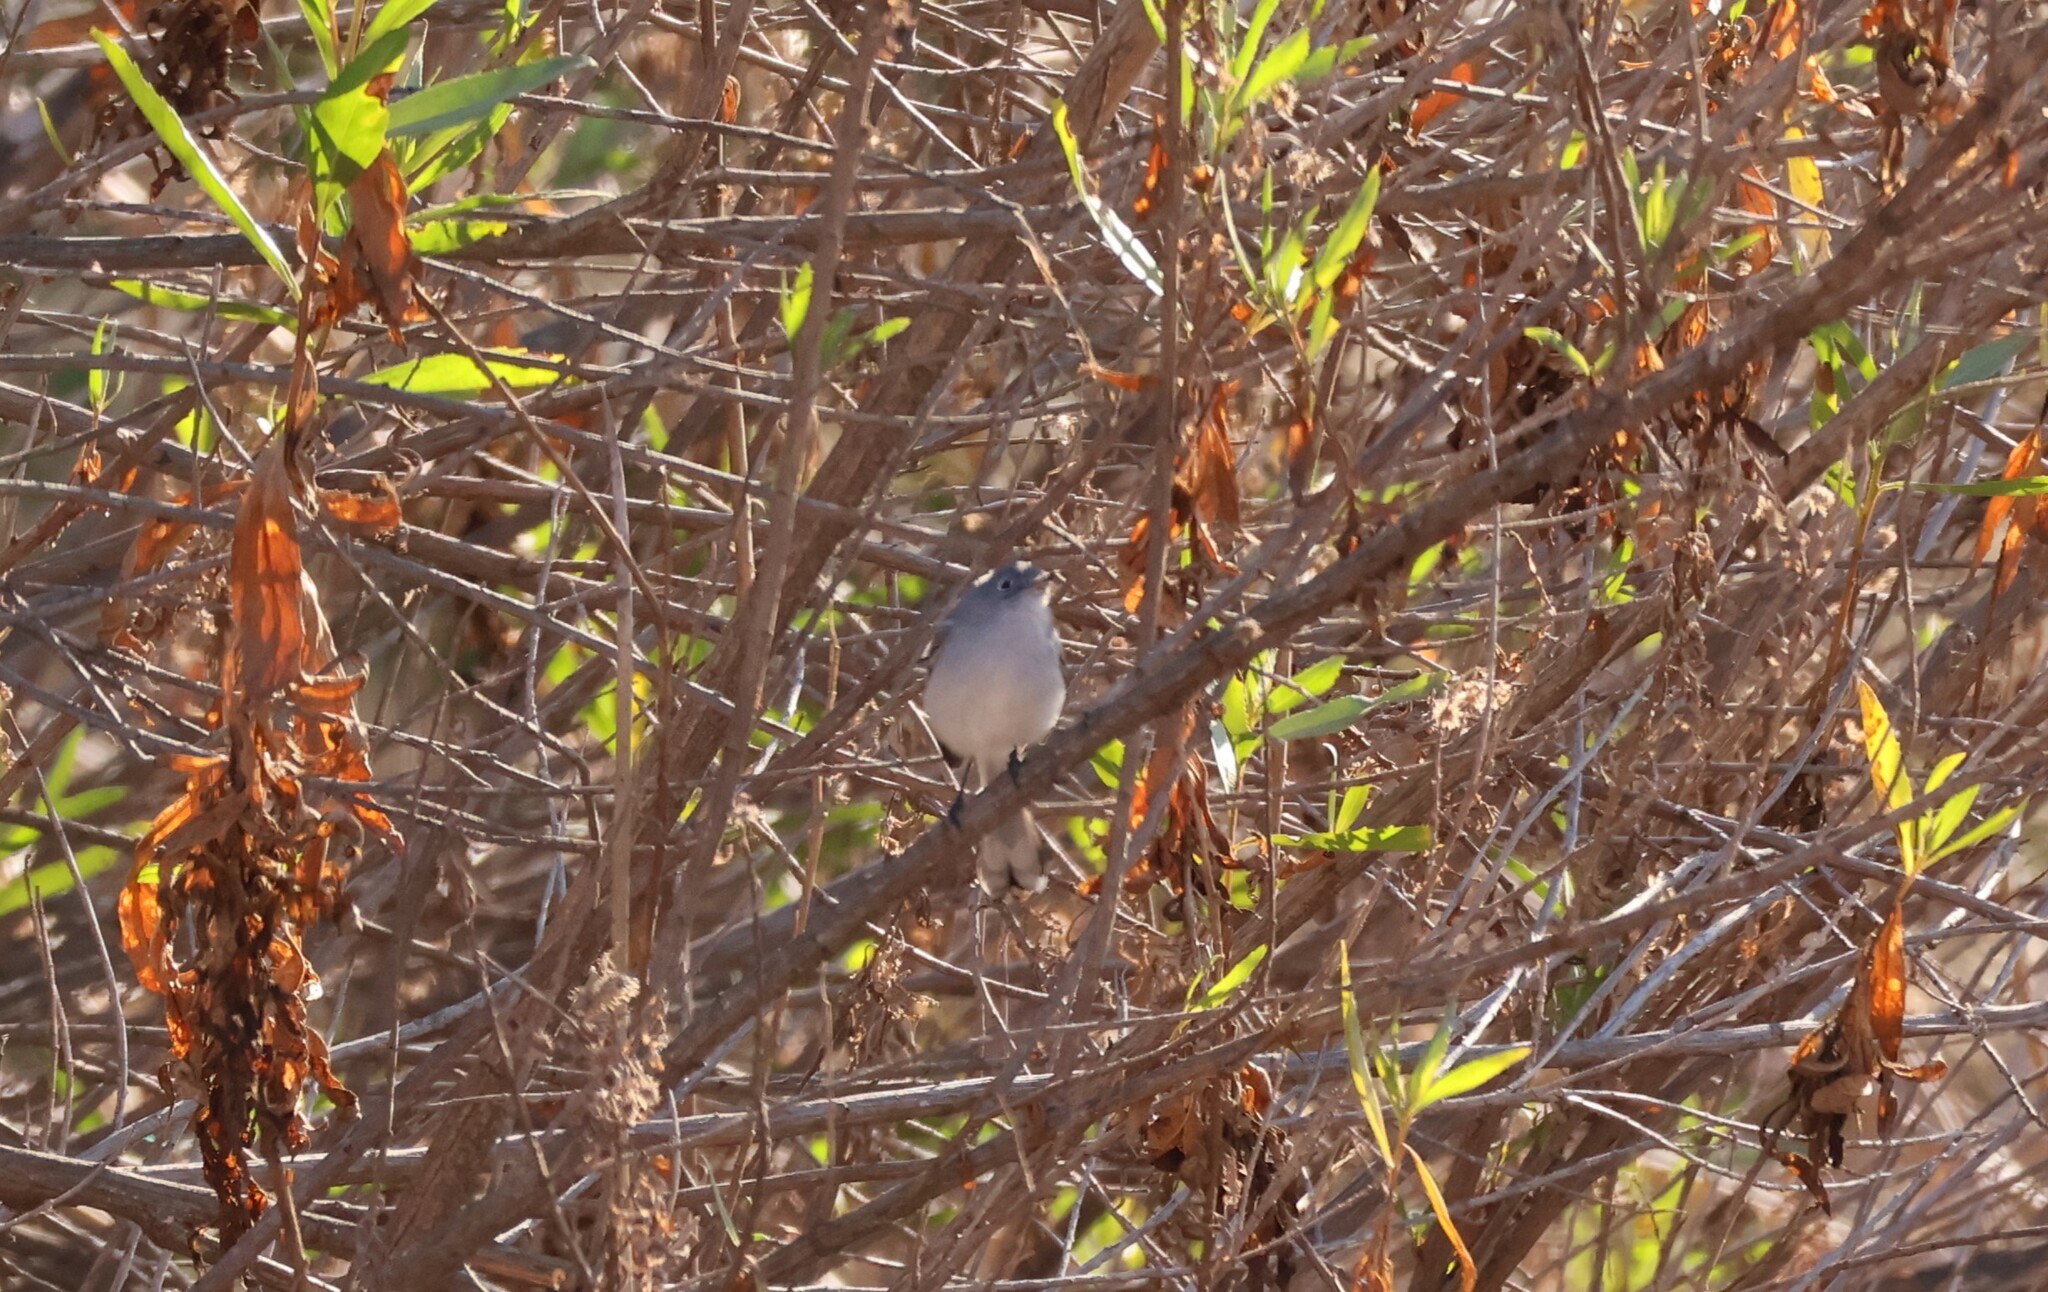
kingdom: Animalia
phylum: Chordata
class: Aves
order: Passeriformes
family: Polioptilidae
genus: Polioptila
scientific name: Polioptila caerulea
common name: Blue-gray gnatcatcher
